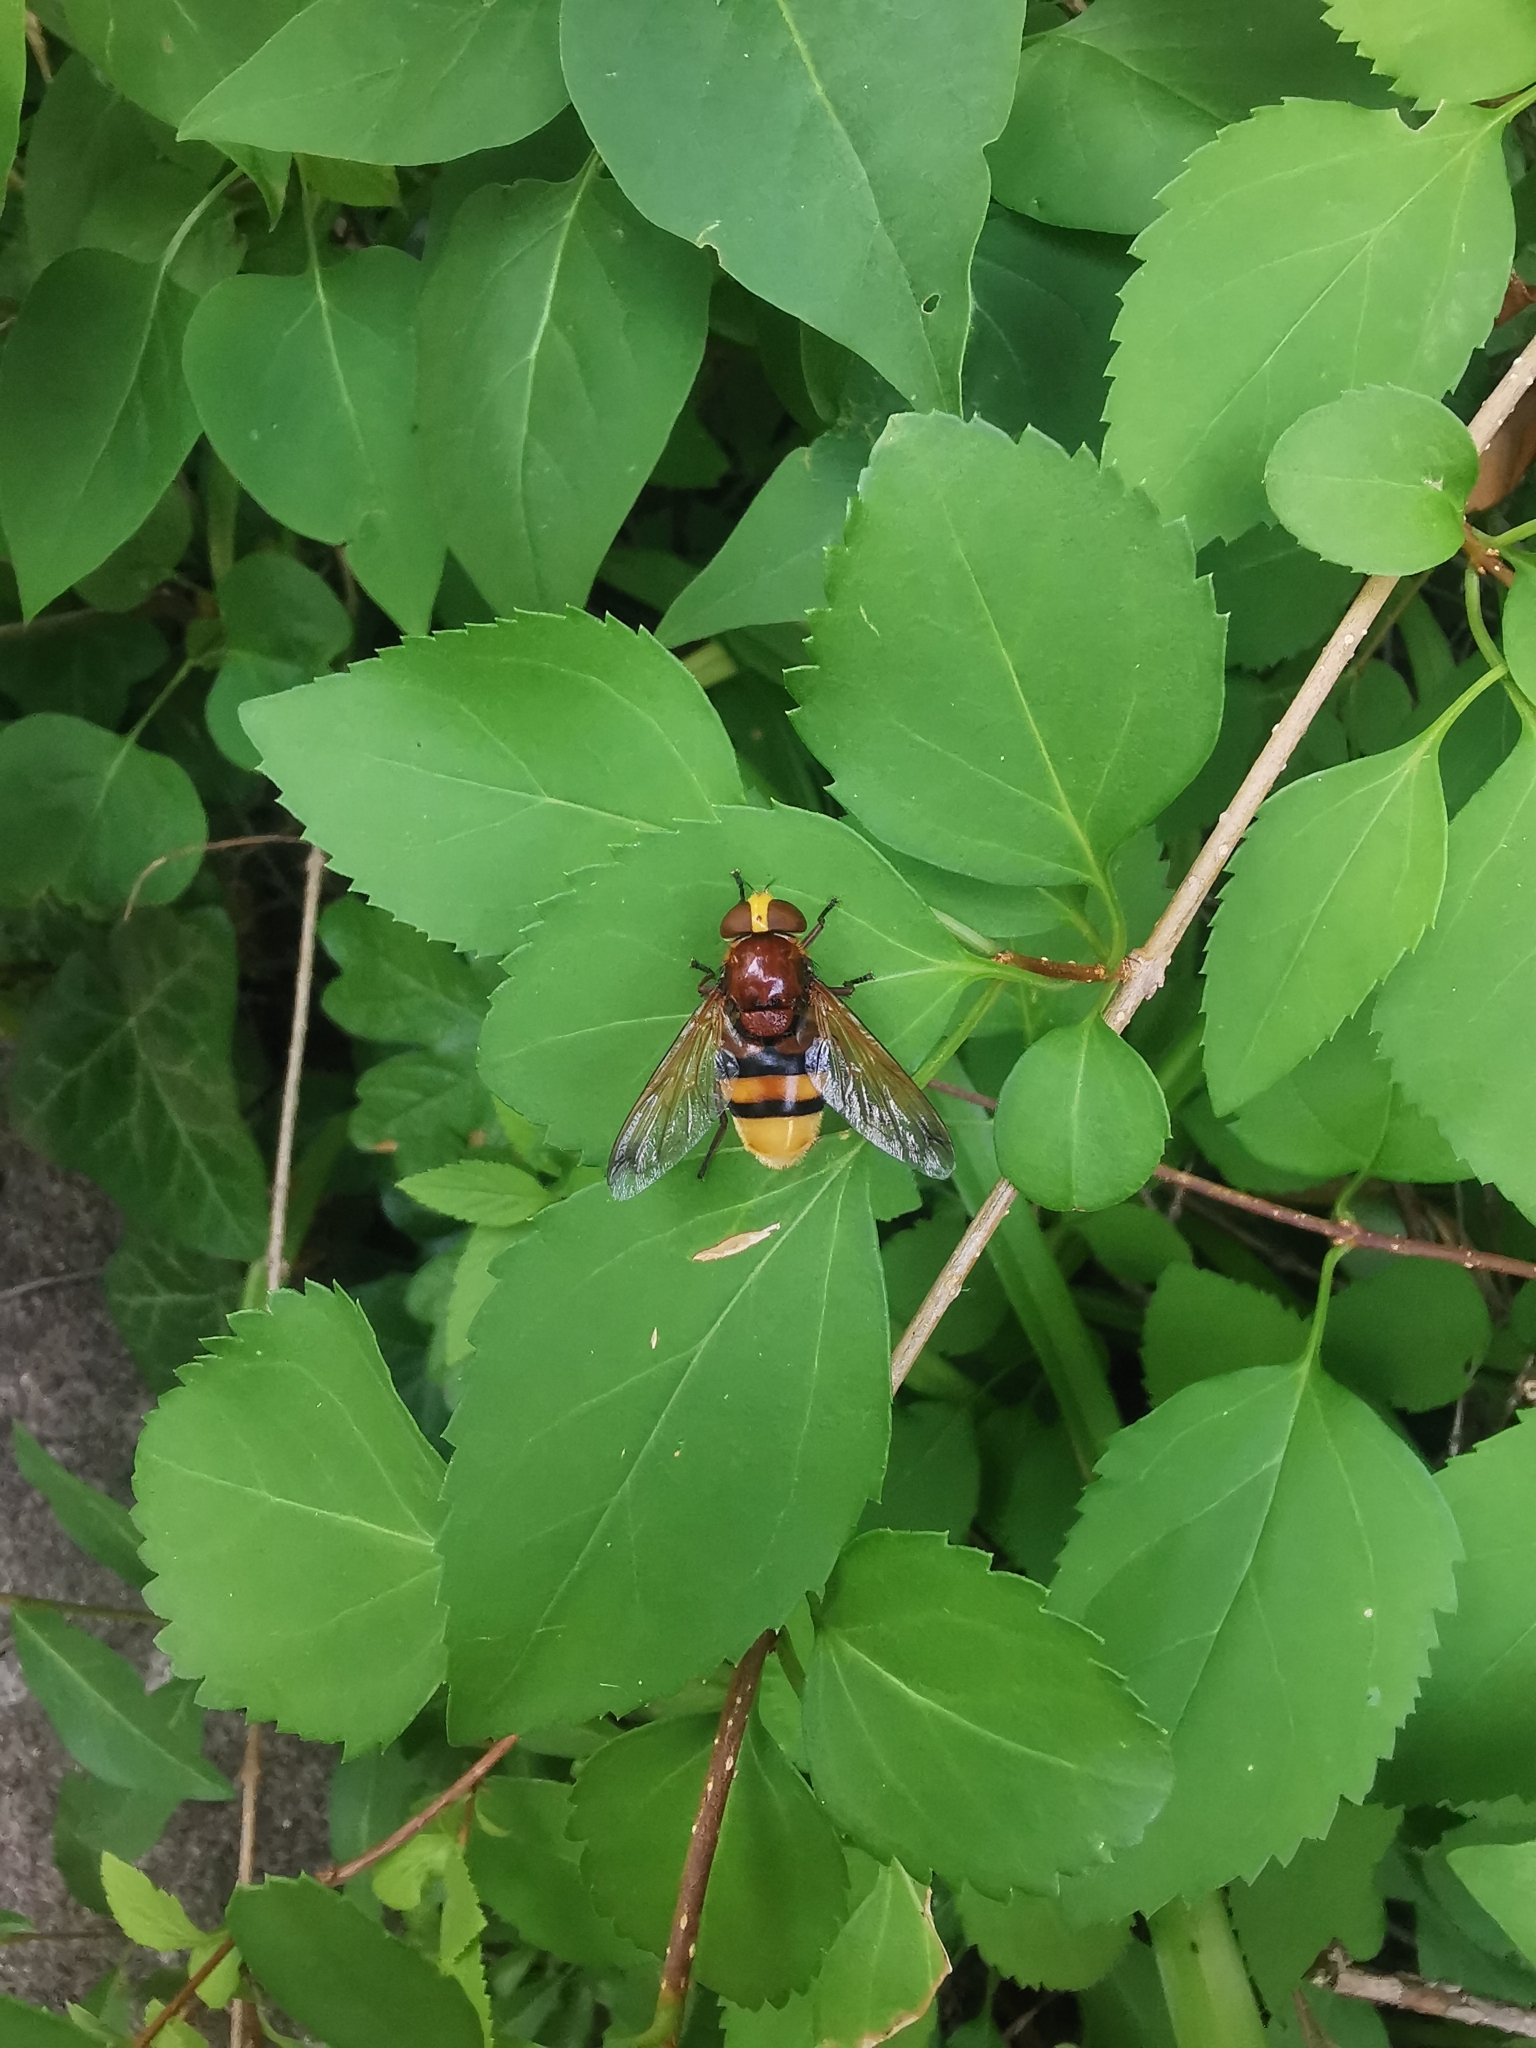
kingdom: Animalia
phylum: Arthropoda
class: Insecta
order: Diptera
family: Syrphidae
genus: Volucella
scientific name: Volucella zonaria
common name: Hornet hoverfly
